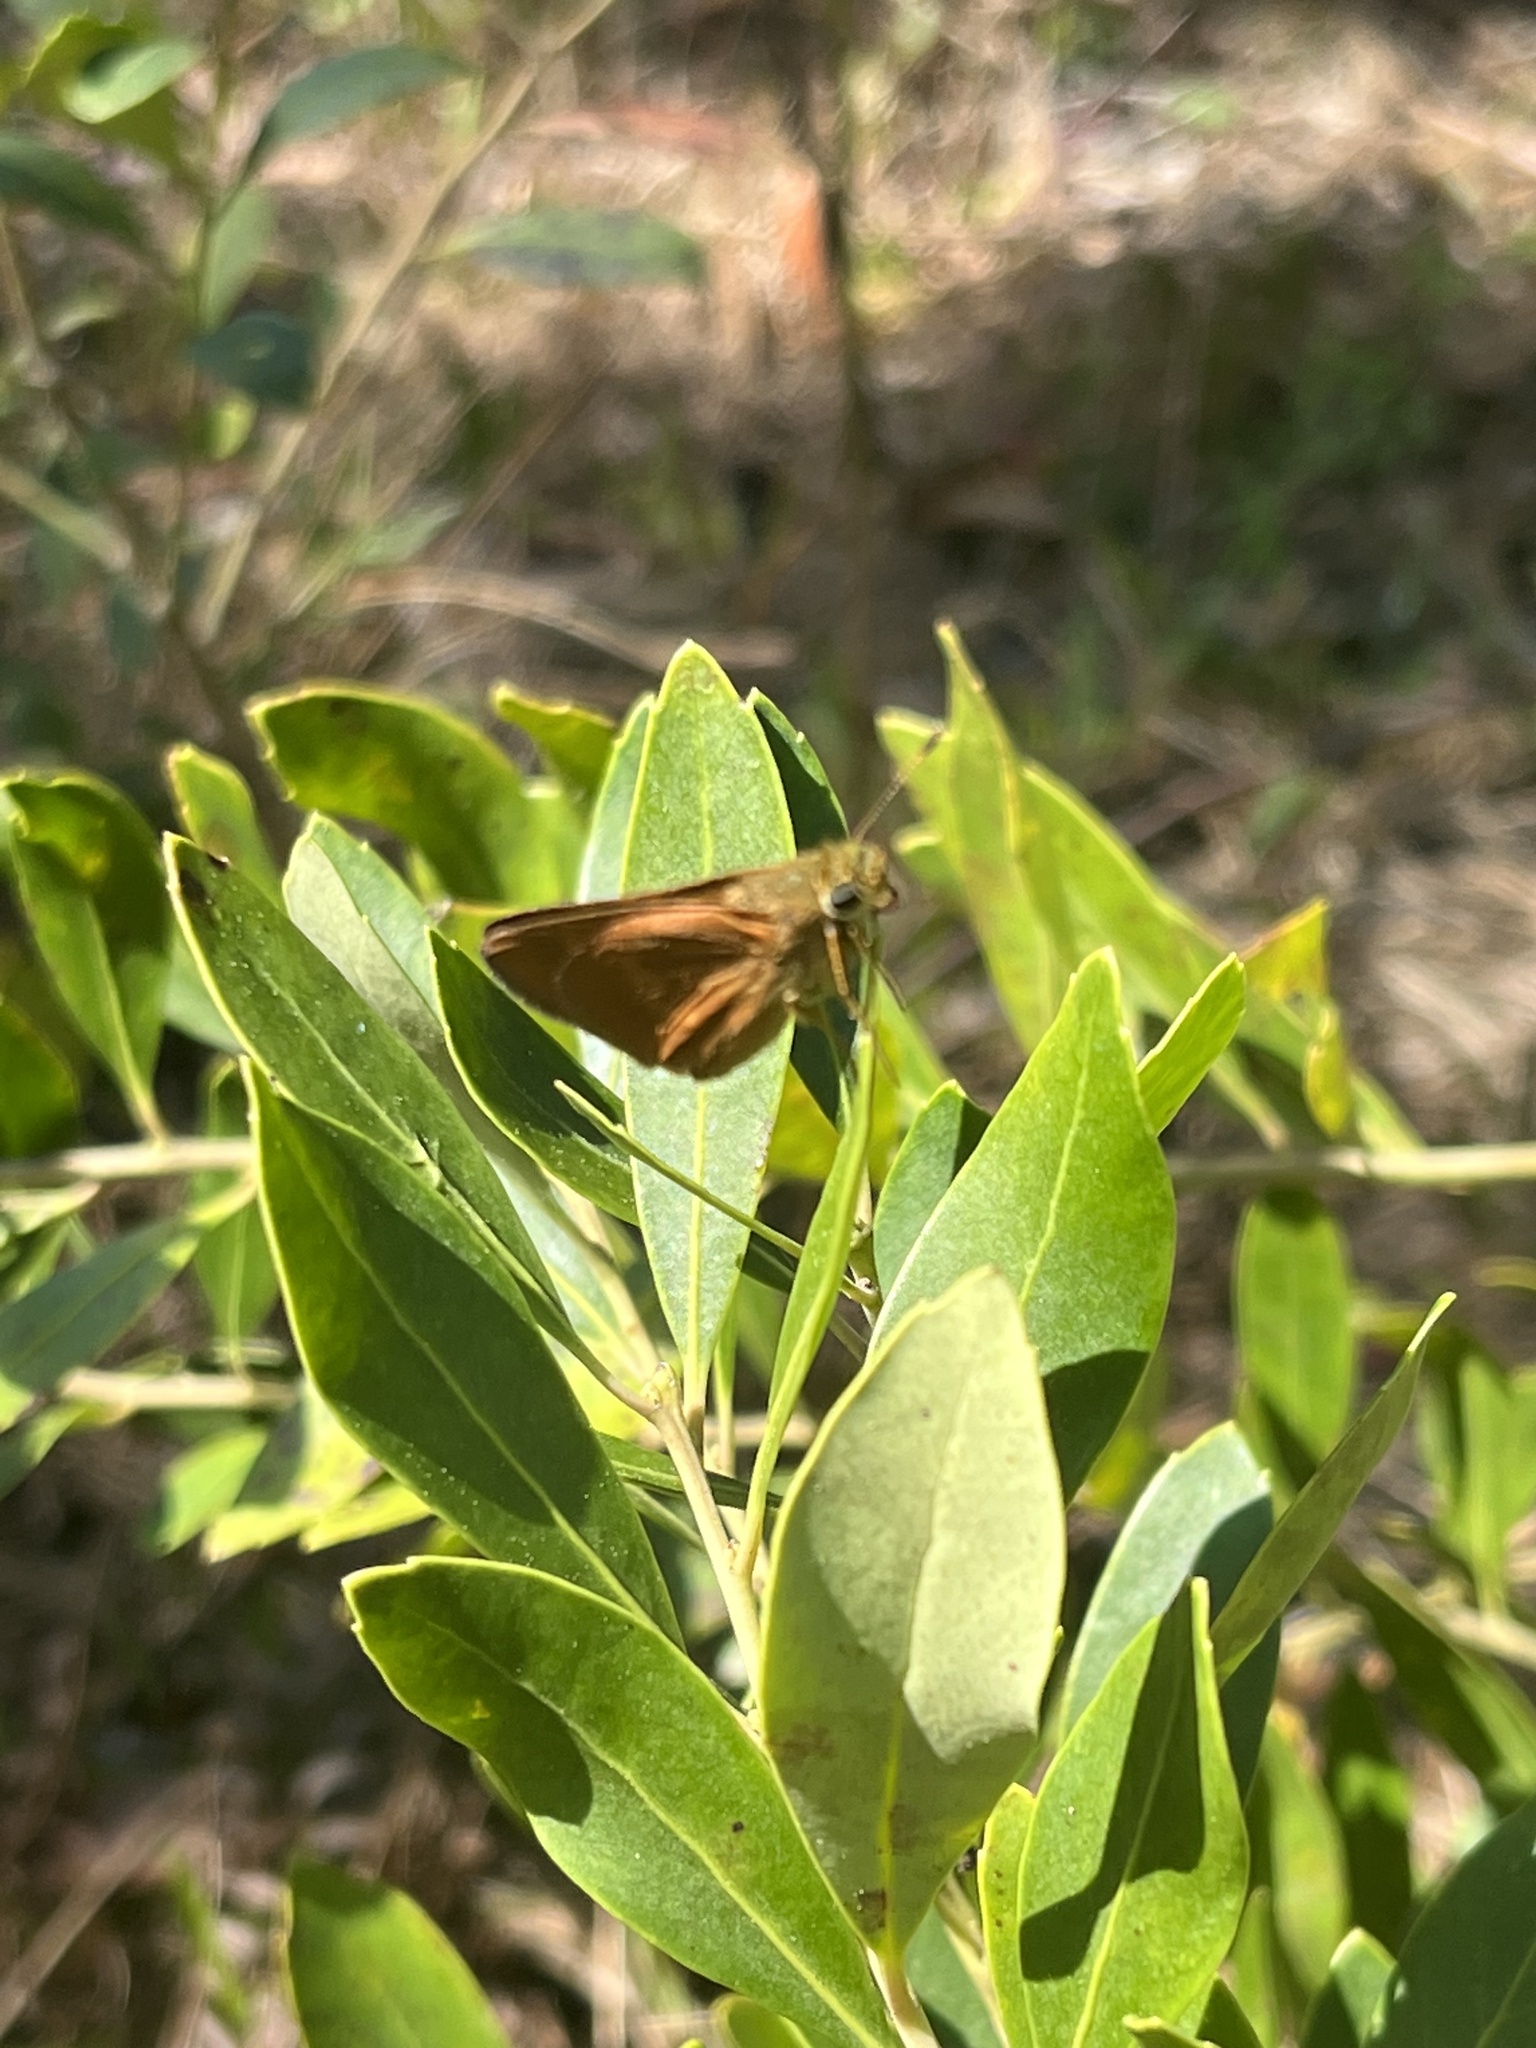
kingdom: Animalia
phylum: Arthropoda
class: Insecta
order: Lepidoptera
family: Hesperiidae
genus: Polites
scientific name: Polites otho
